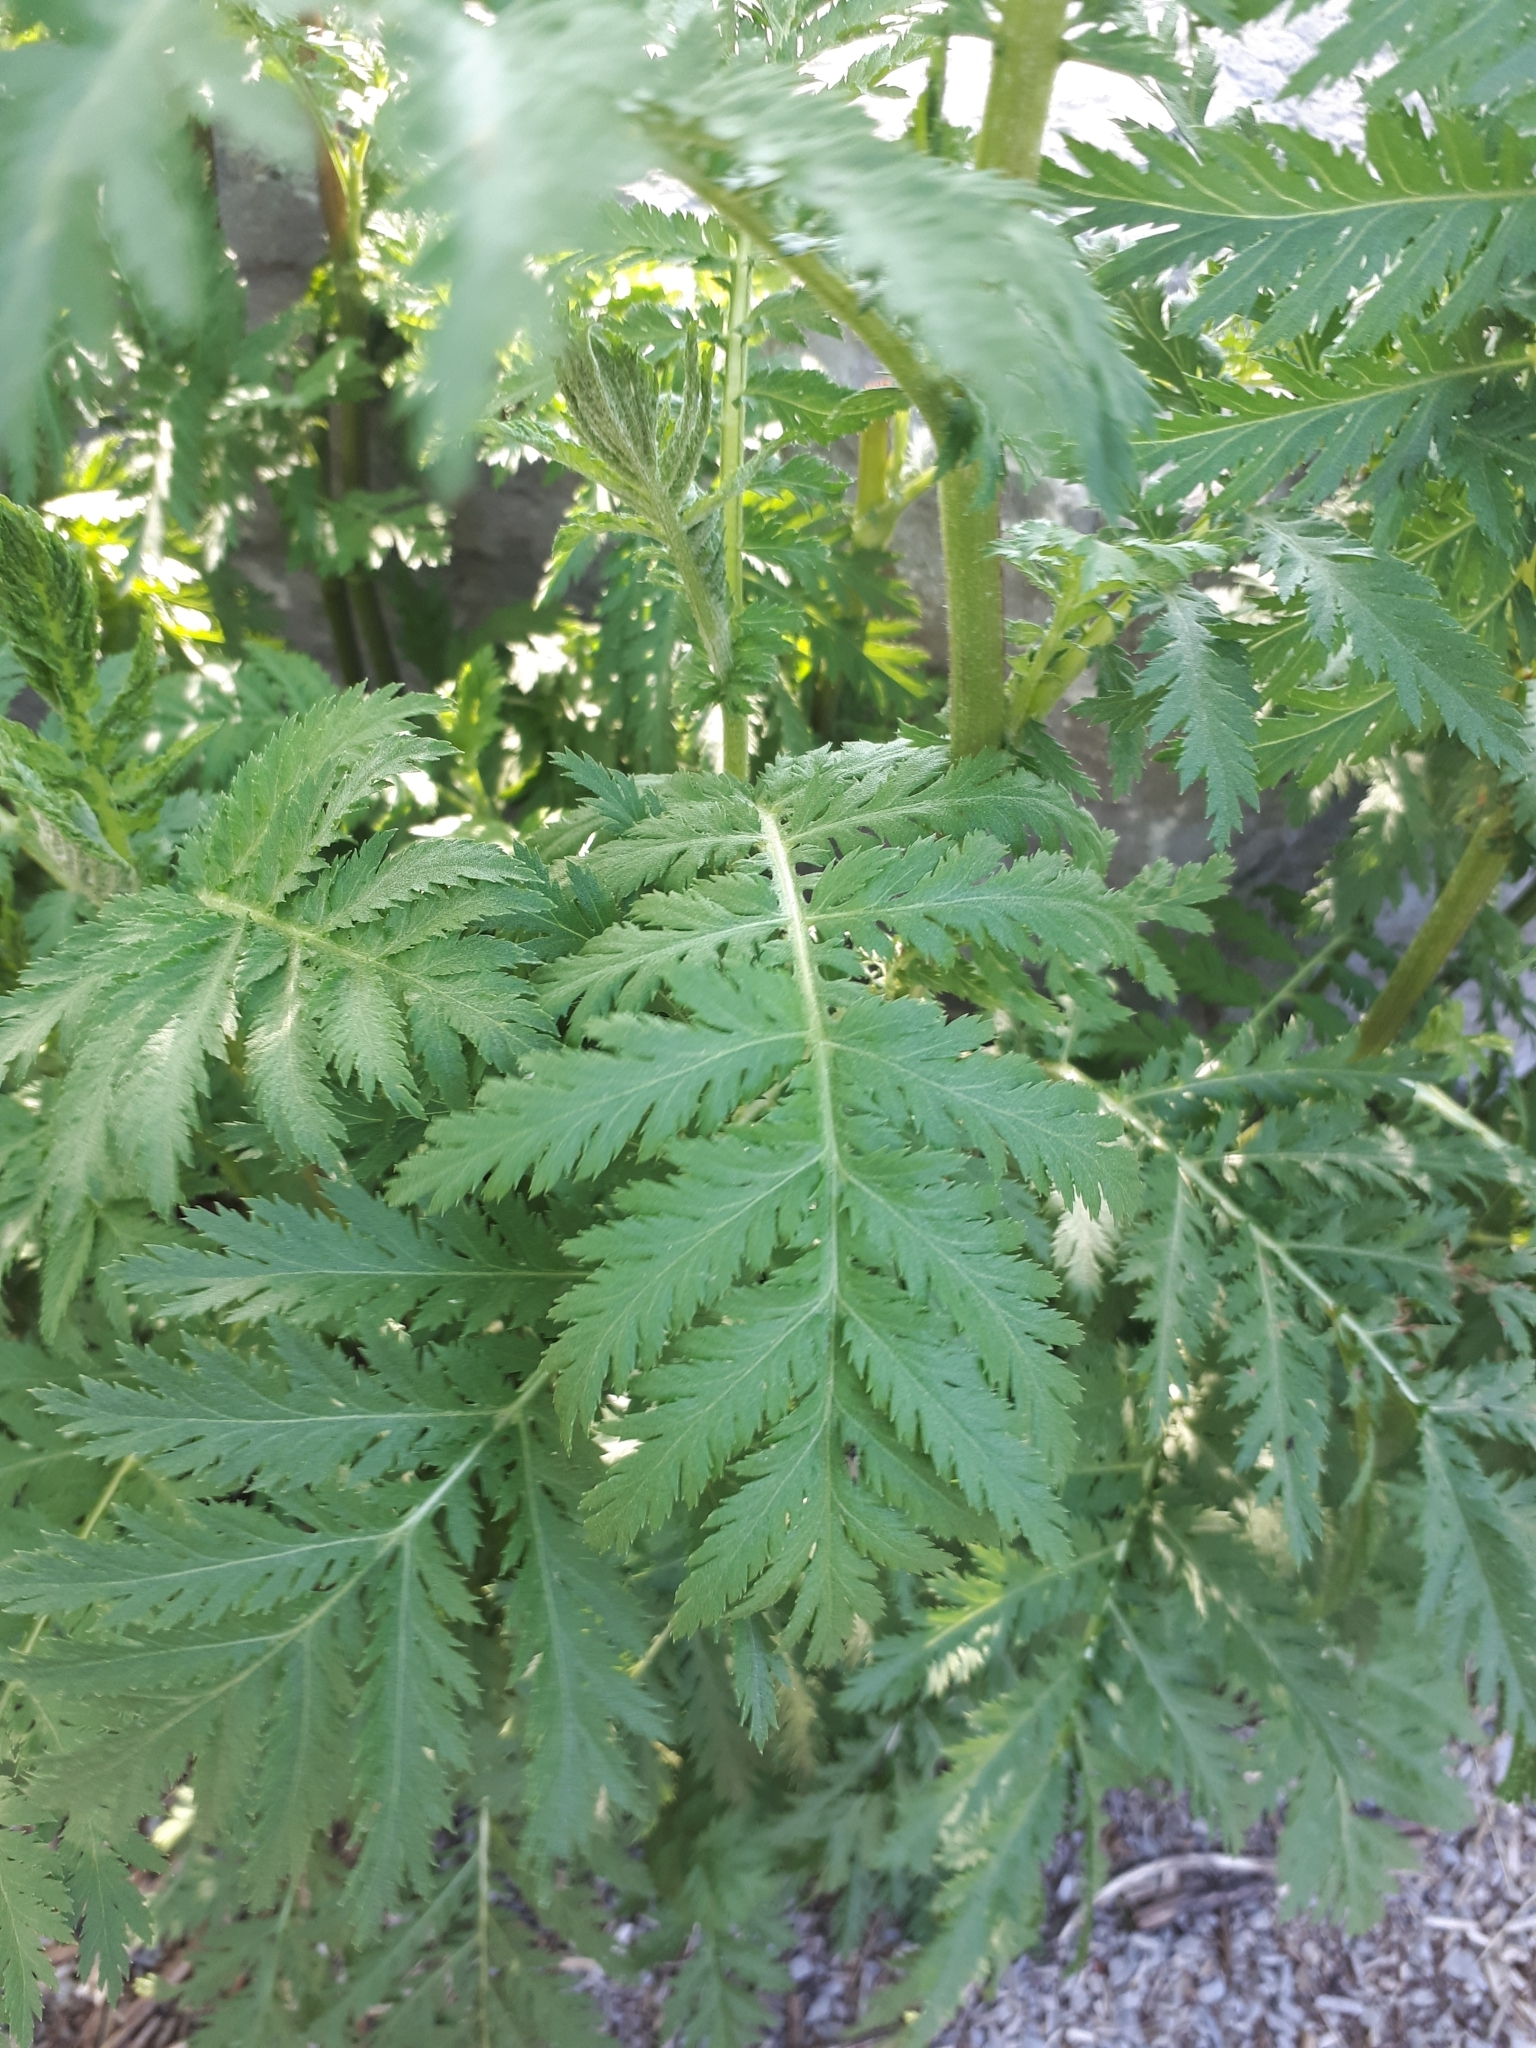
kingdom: Plantae
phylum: Tracheophyta
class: Magnoliopsida
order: Asterales
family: Asteraceae
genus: Tanacetum
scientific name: Tanacetum vulgare
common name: Common tansy
